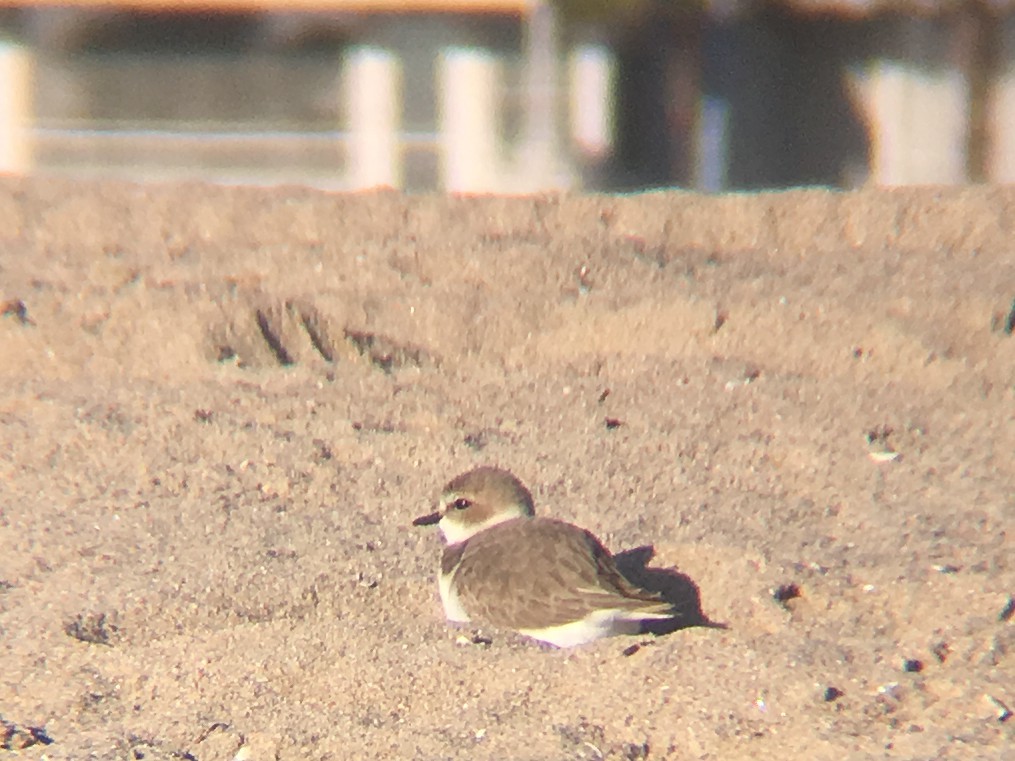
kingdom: Animalia
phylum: Chordata
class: Aves
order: Charadriiformes
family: Charadriidae
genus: Anarhynchus
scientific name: Anarhynchus
